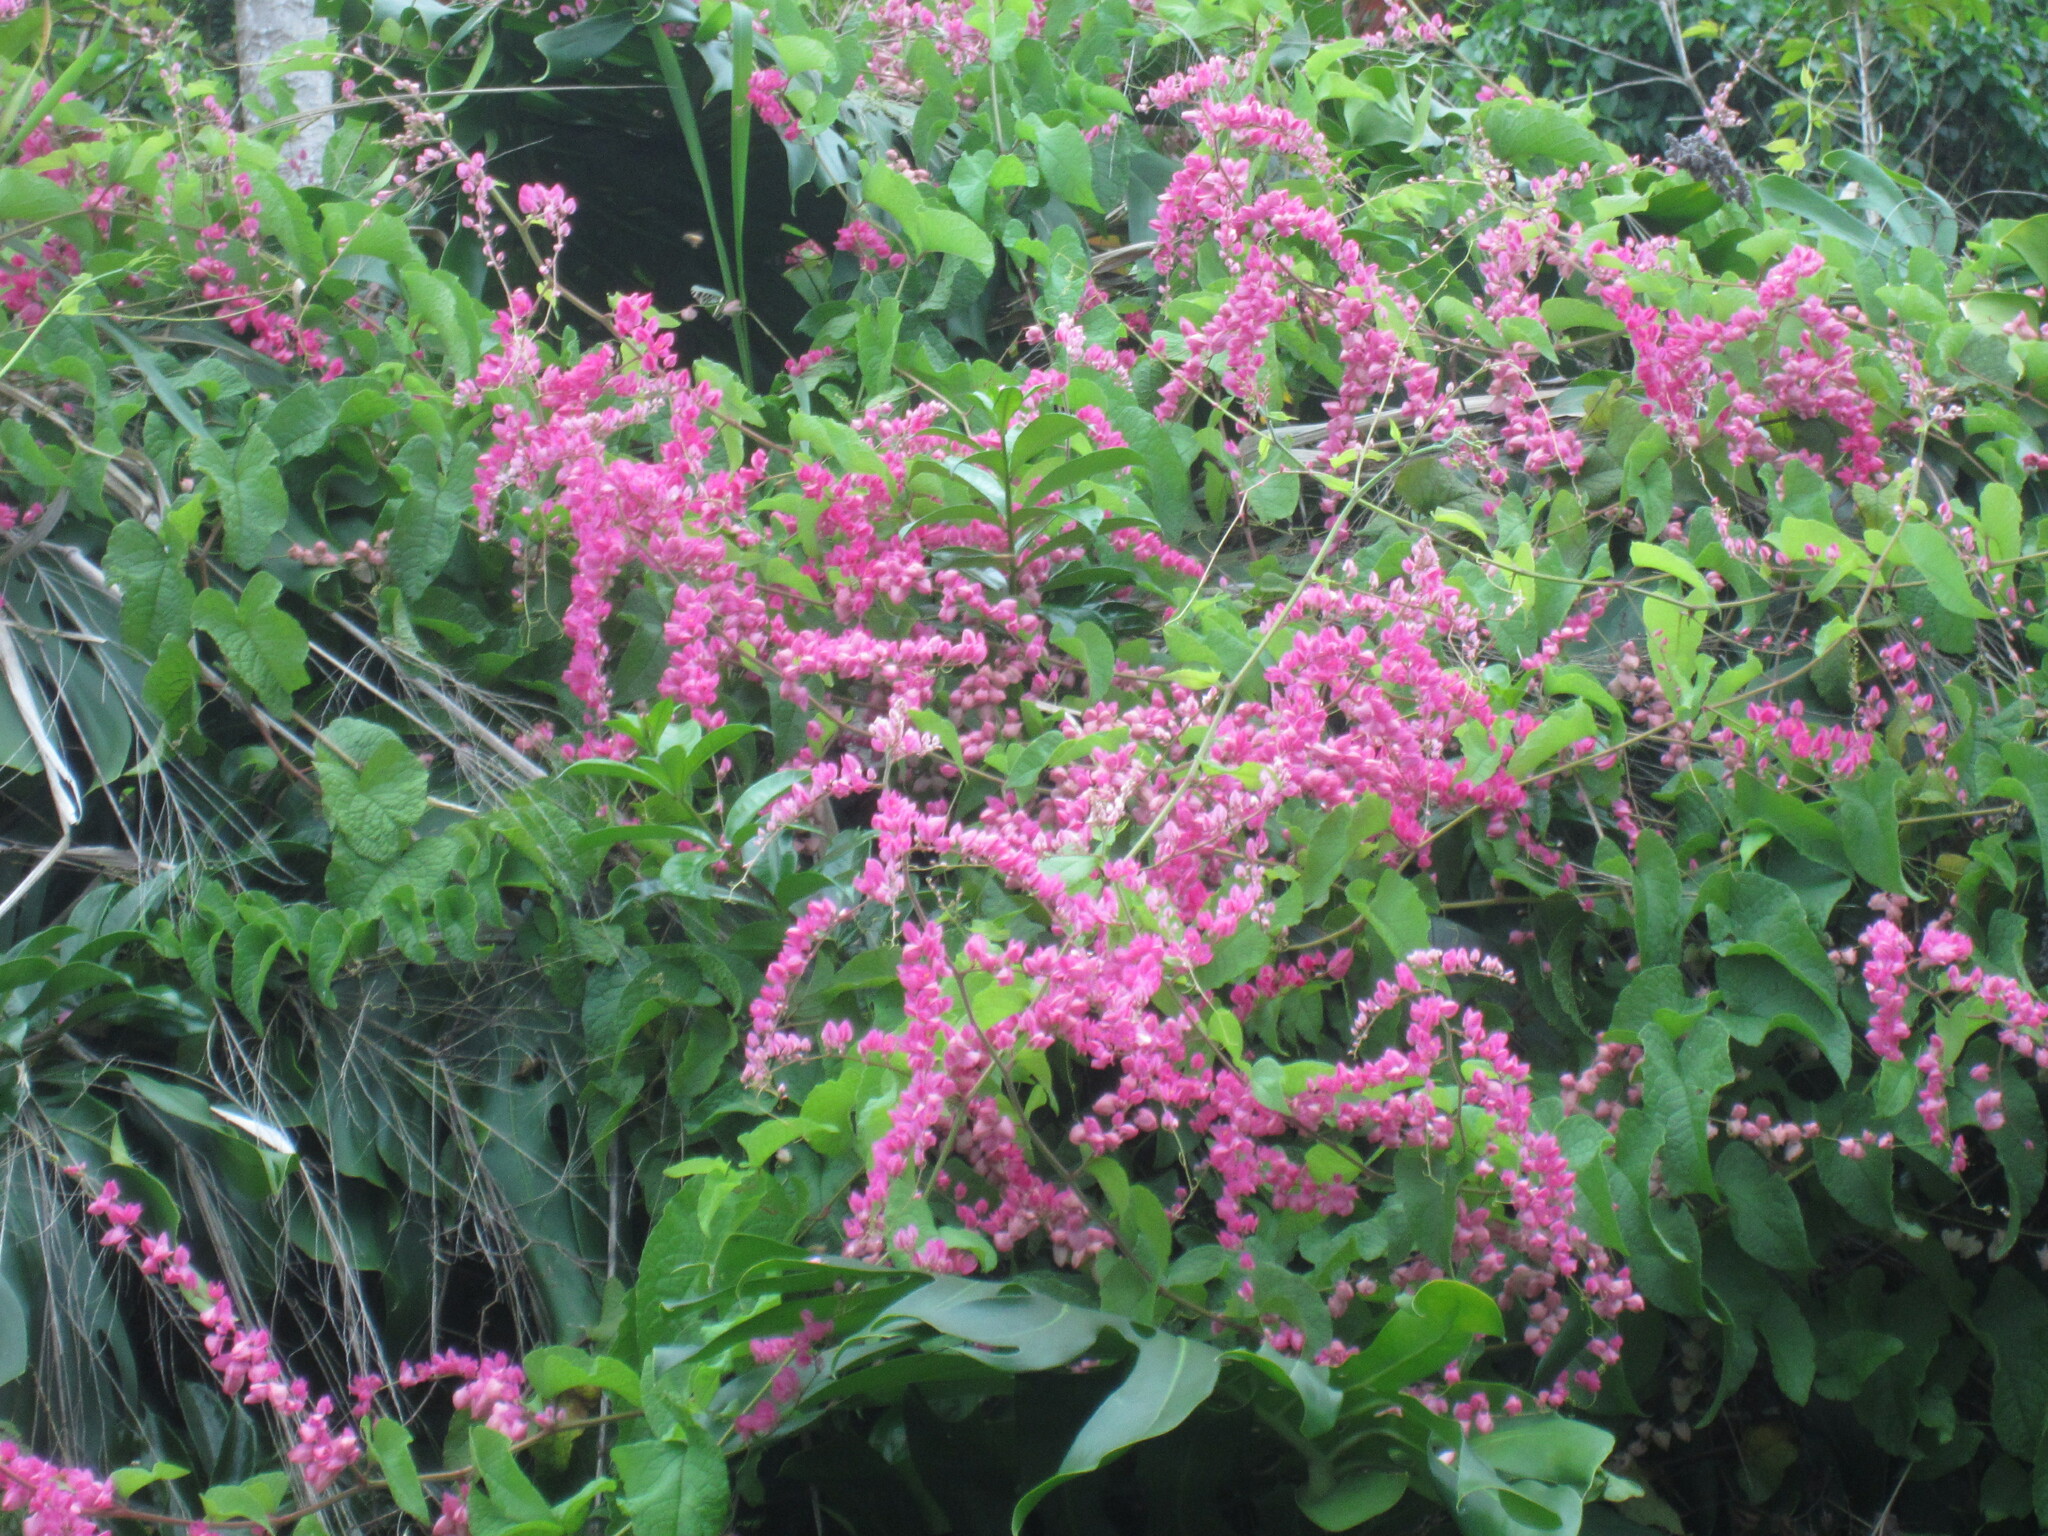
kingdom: Plantae
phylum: Tracheophyta
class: Magnoliopsida
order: Caryophyllales
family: Polygonaceae
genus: Antigonon
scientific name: Antigonon leptopus
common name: Coral vine
